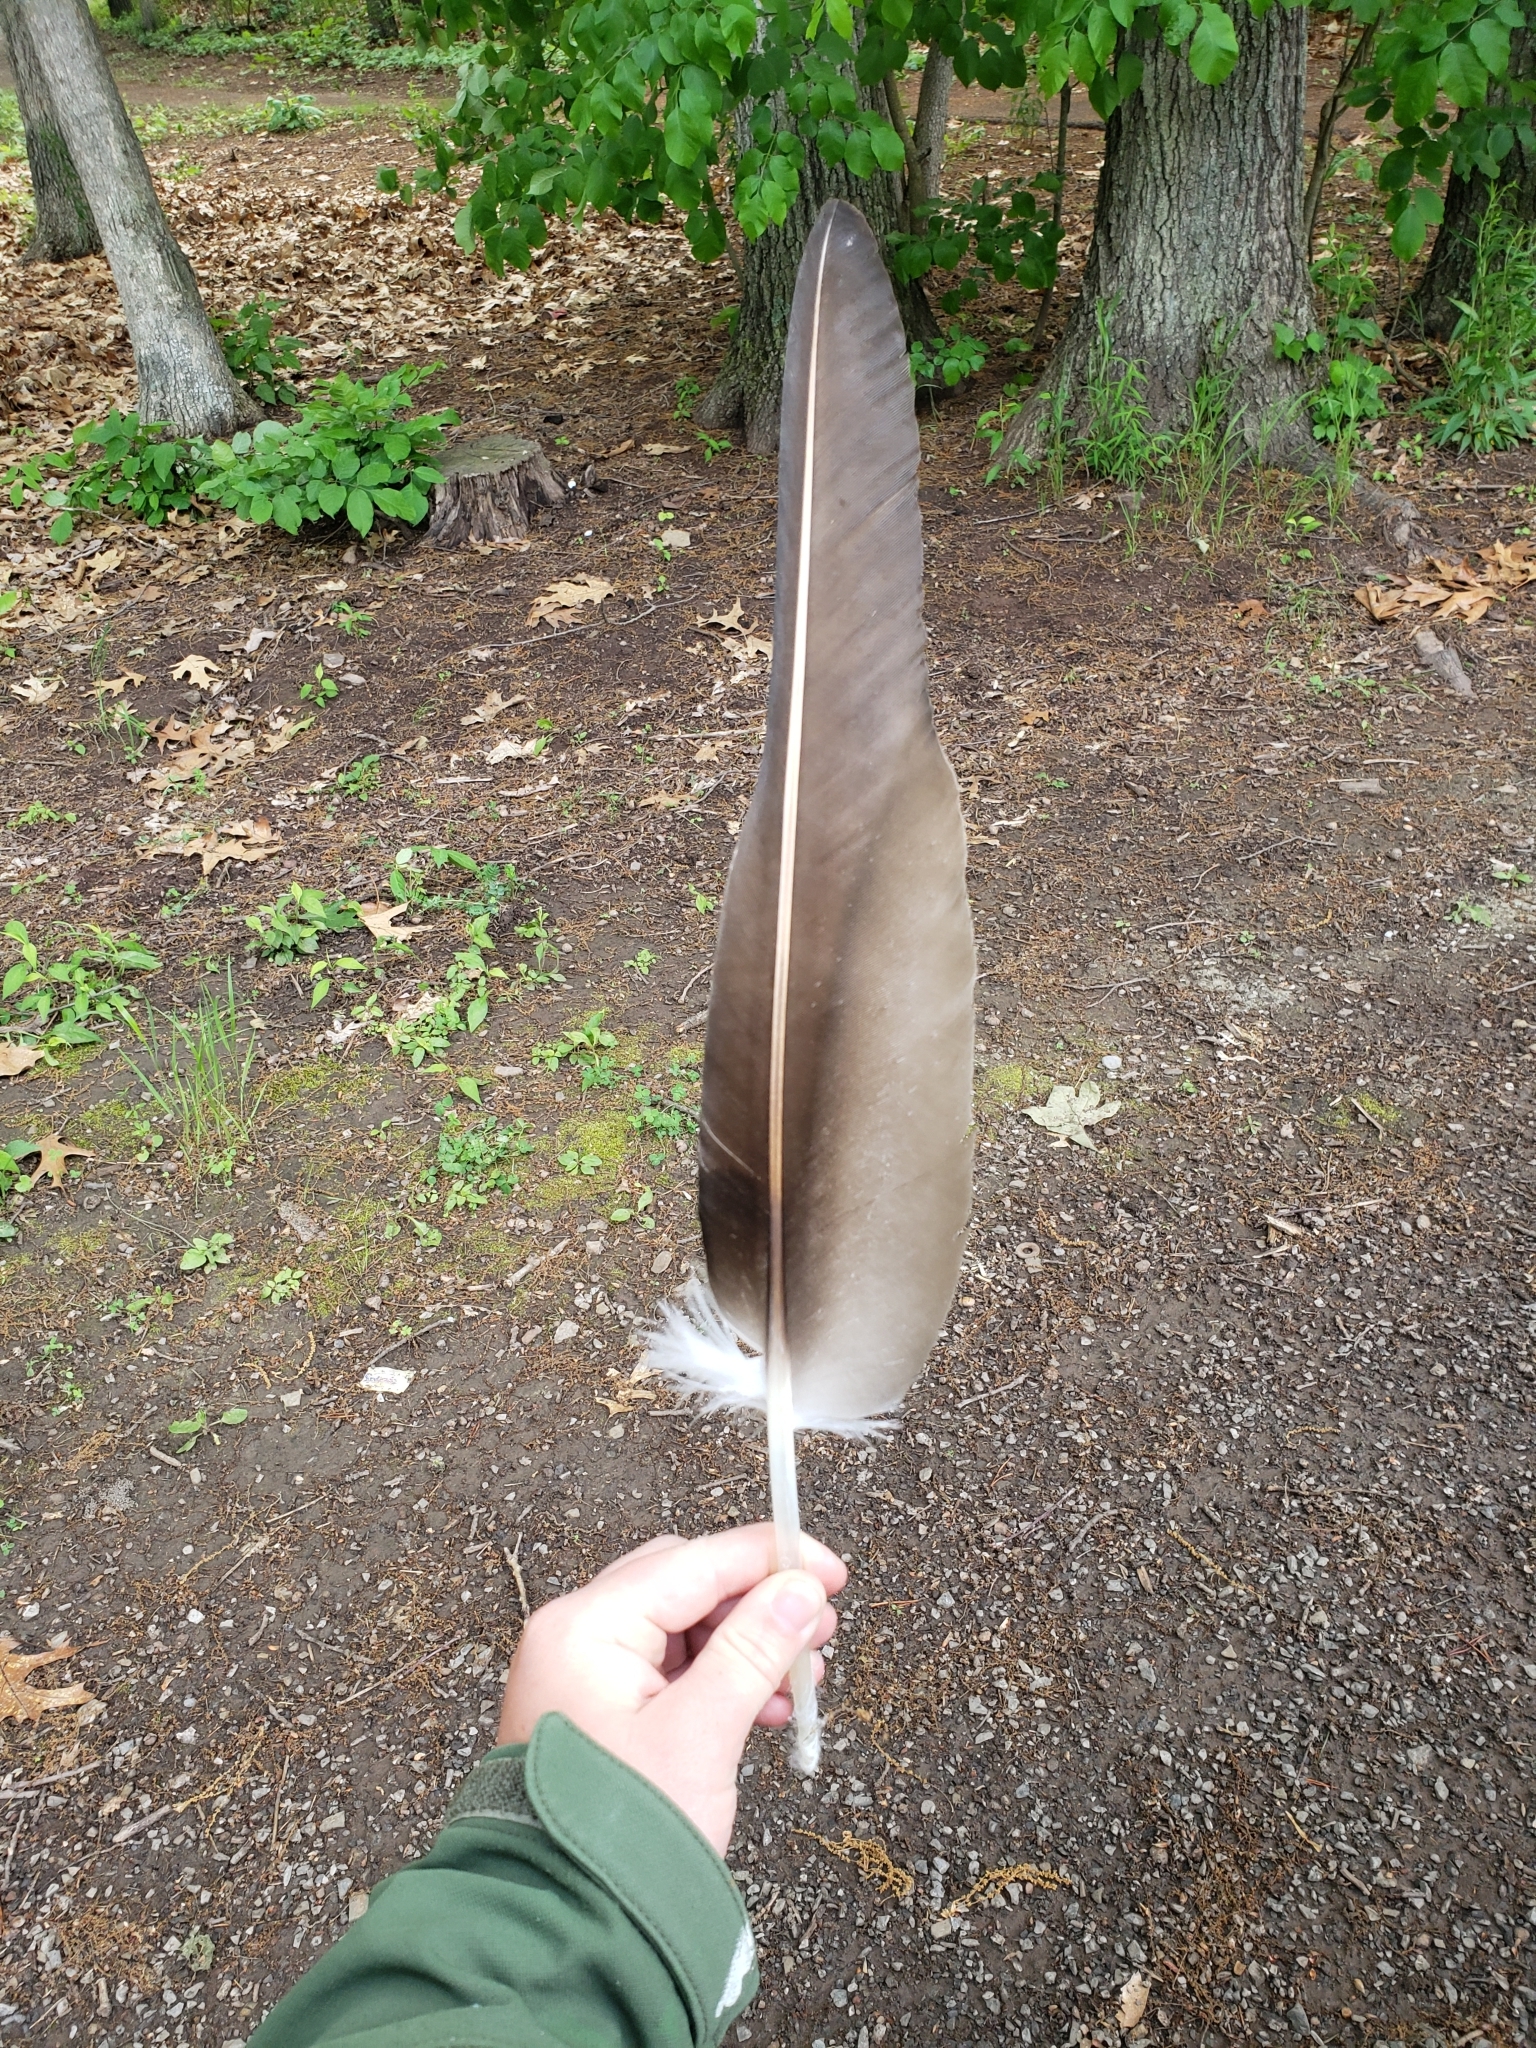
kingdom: Animalia
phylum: Chordata
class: Aves
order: Accipitriformes
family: Cathartidae
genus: Cathartes
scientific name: Cathartes aura
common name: Turkey vulture
